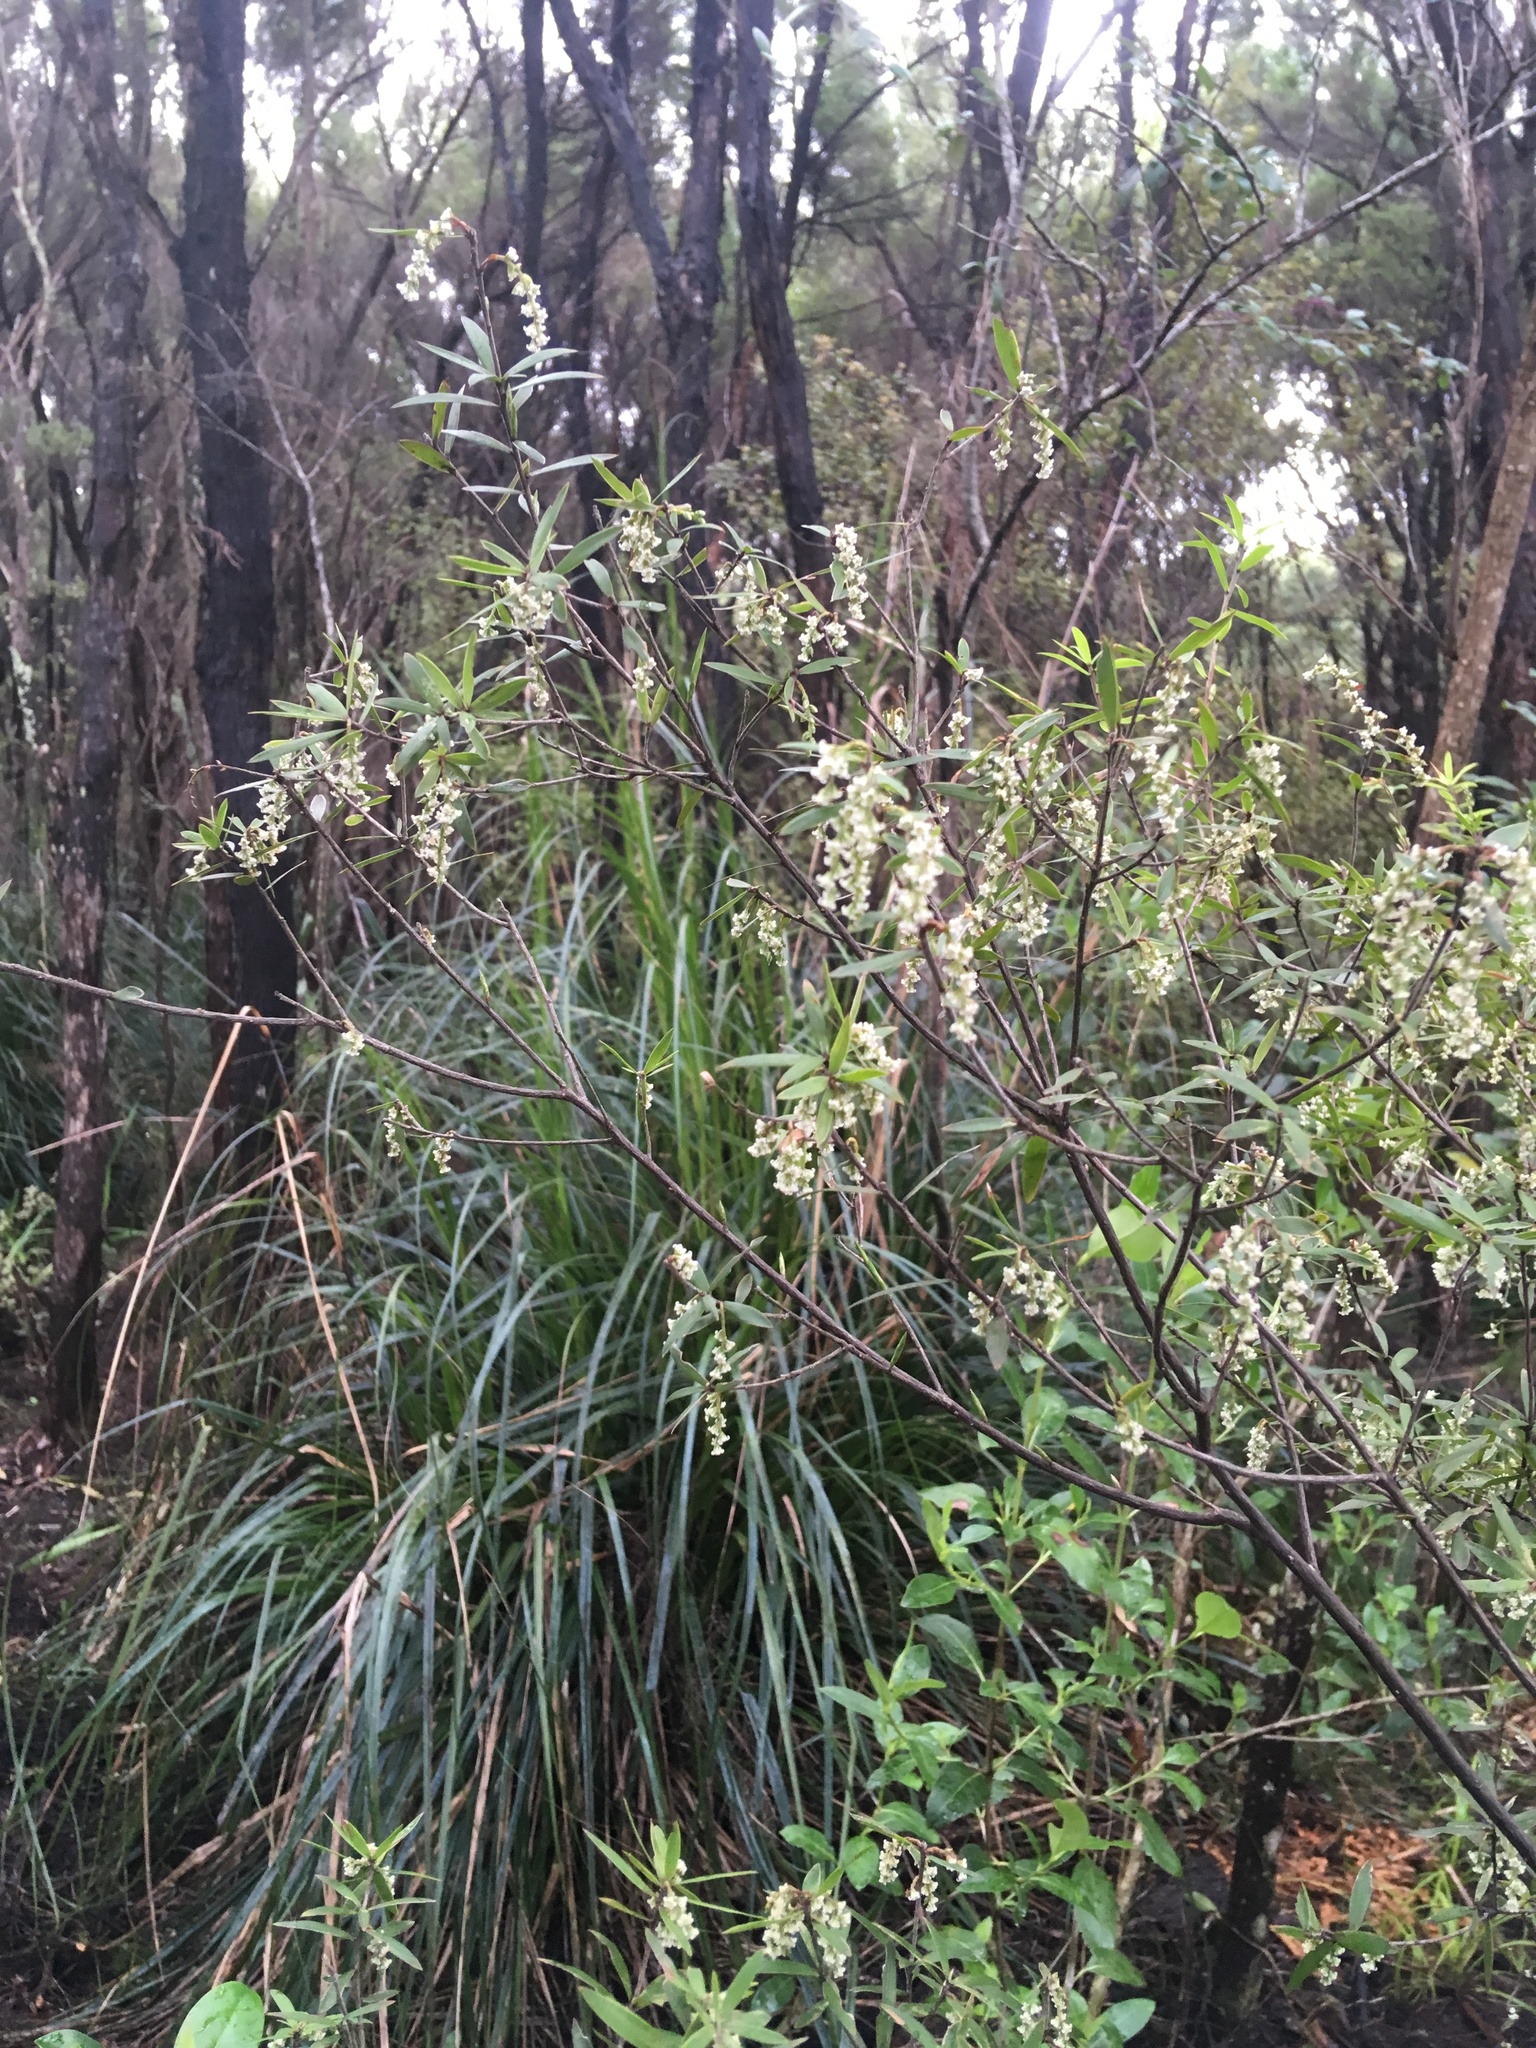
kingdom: Plantae
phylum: Tracheophyta
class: Magnoliopsida
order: Ericales
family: Ericaceae
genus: Leucopogon
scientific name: Leucopogon fasciculatus
